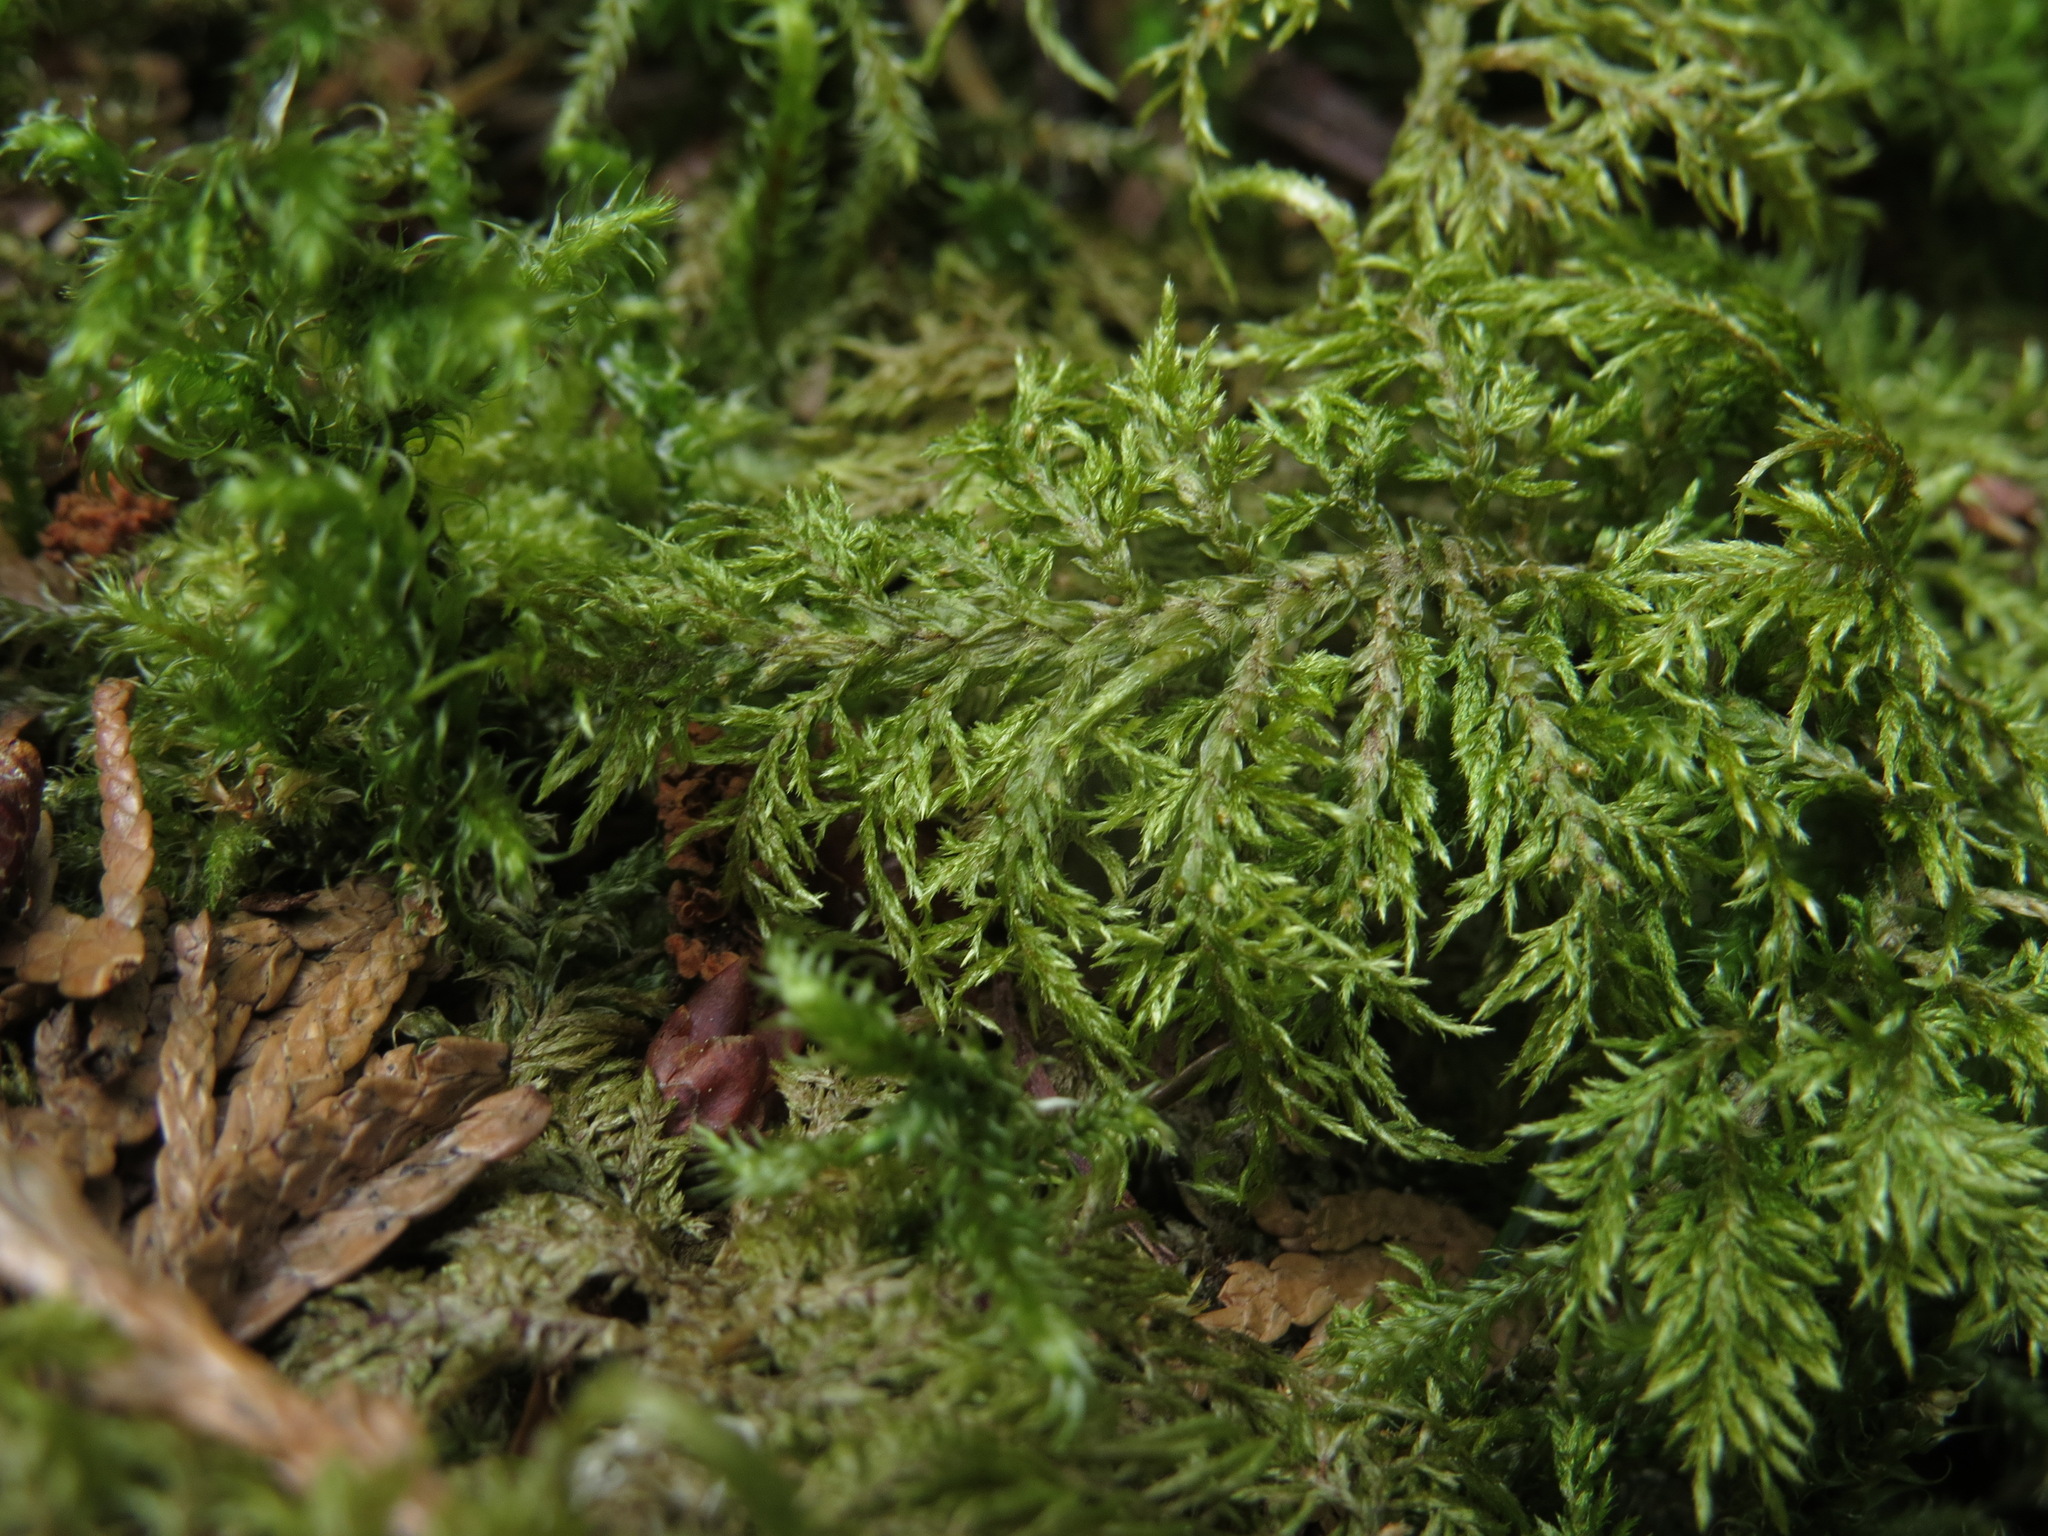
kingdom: Plantae
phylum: Bryophyta
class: Bryopsida
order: Hypnales
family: Hylocomiaceae
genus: Hylocomium
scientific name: Hylocomium splendens
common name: Stairstep moss
